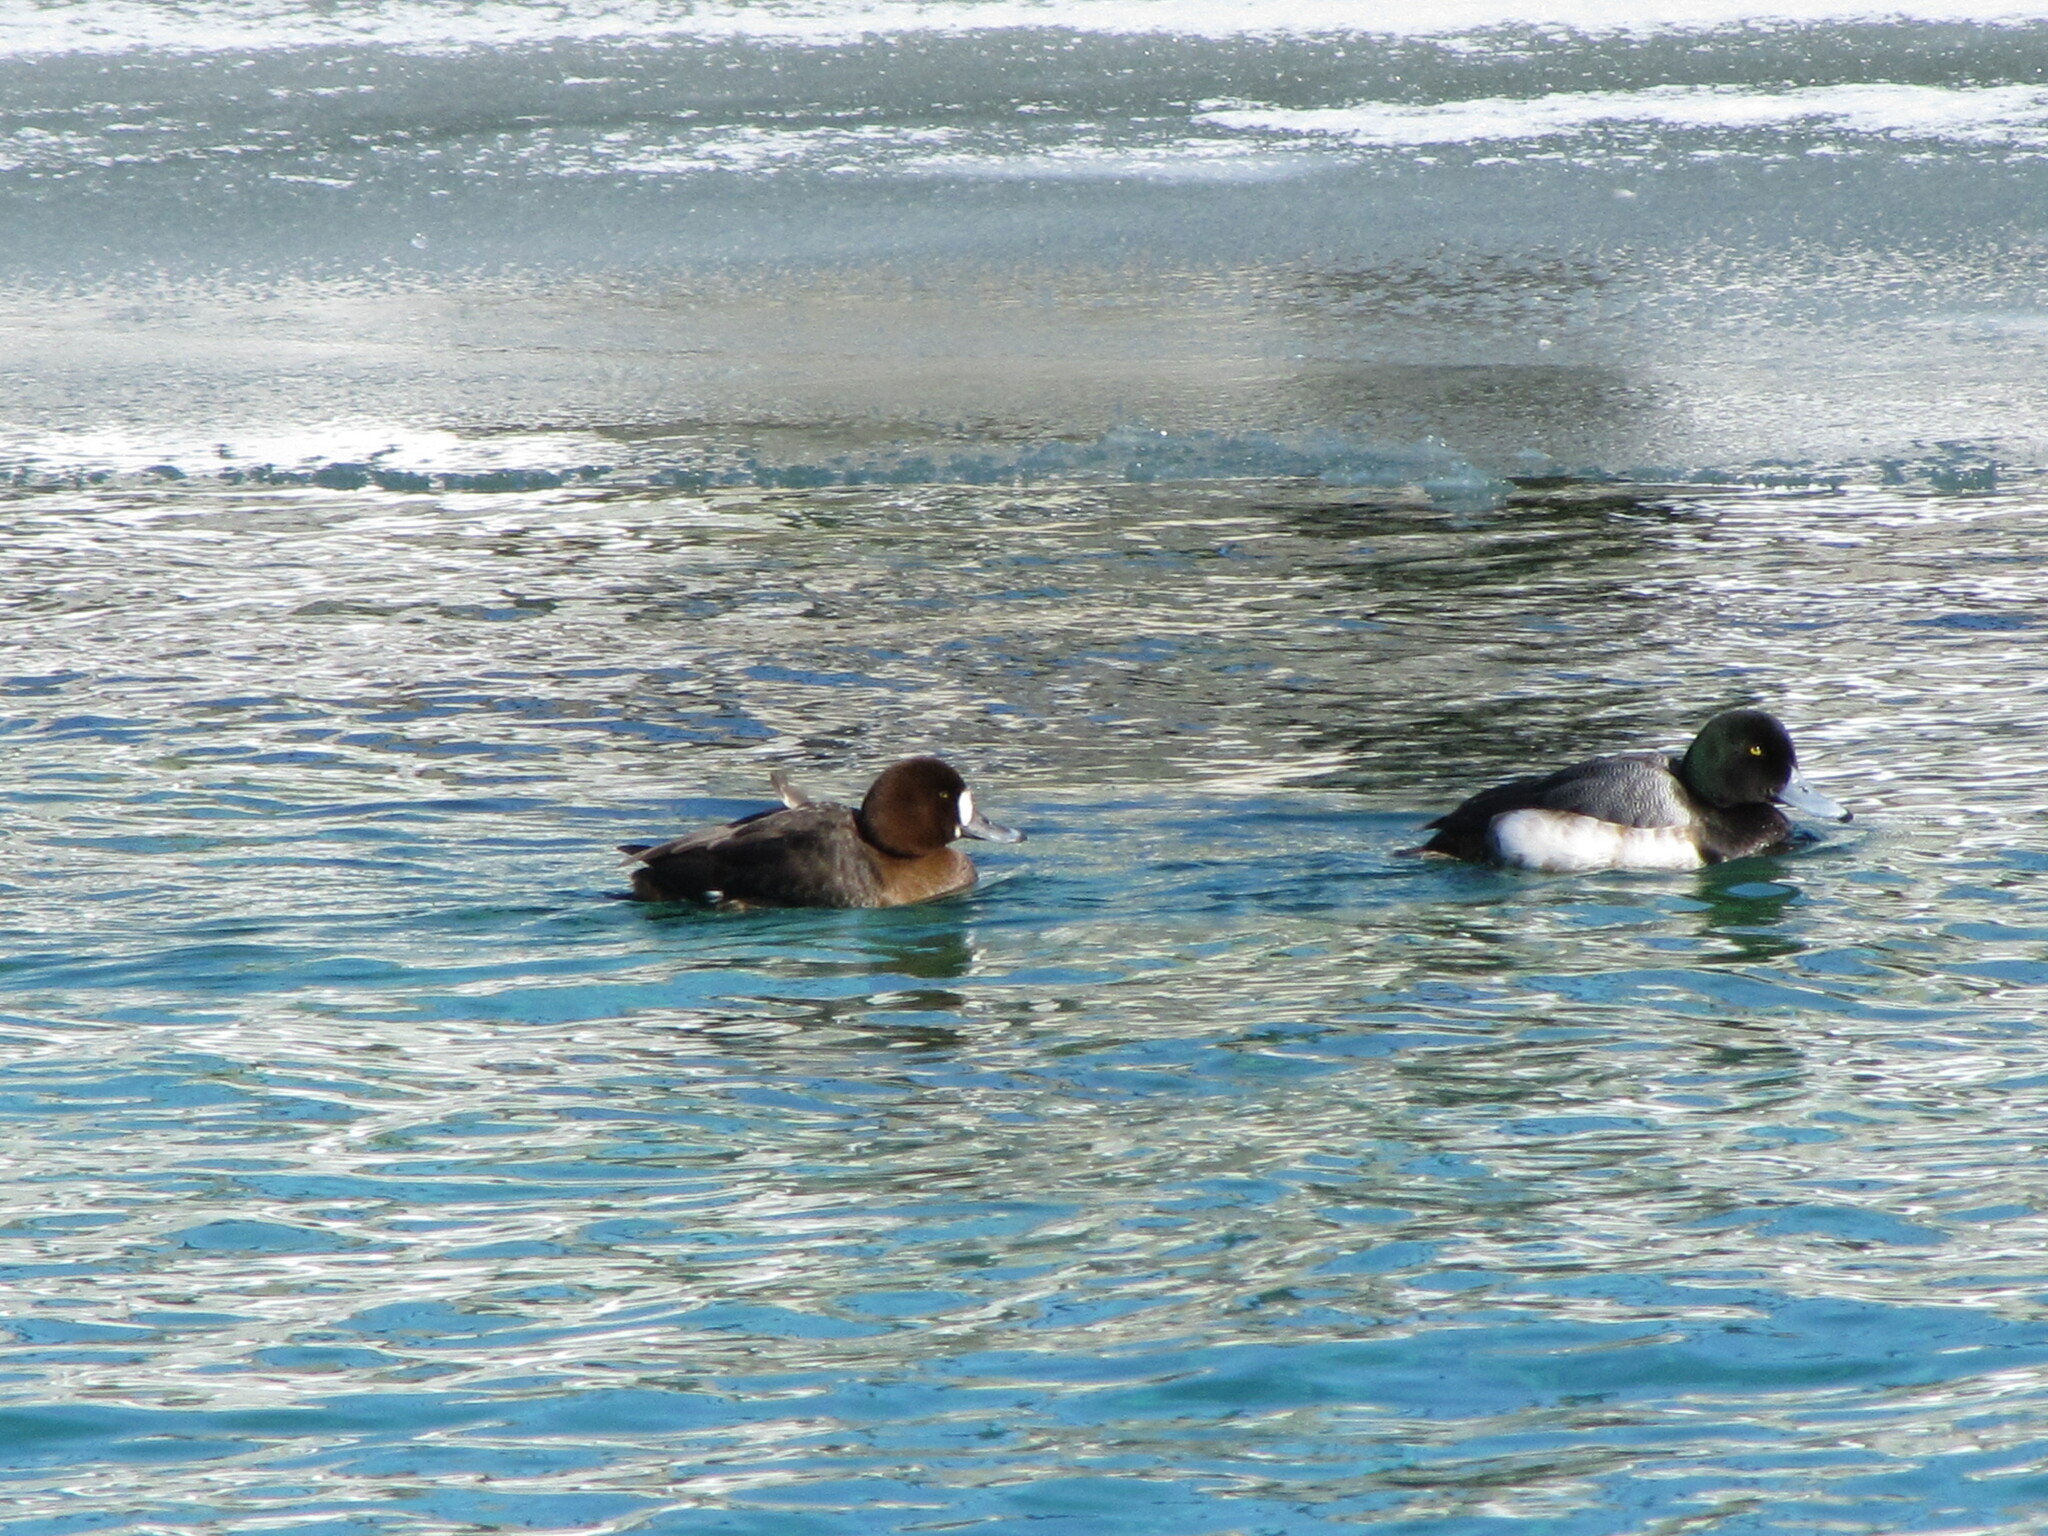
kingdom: Animalia
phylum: Chordata
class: Aves
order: Anseriformes
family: Anatidae
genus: Aythya
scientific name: Aythya marila
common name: Greater scaup
